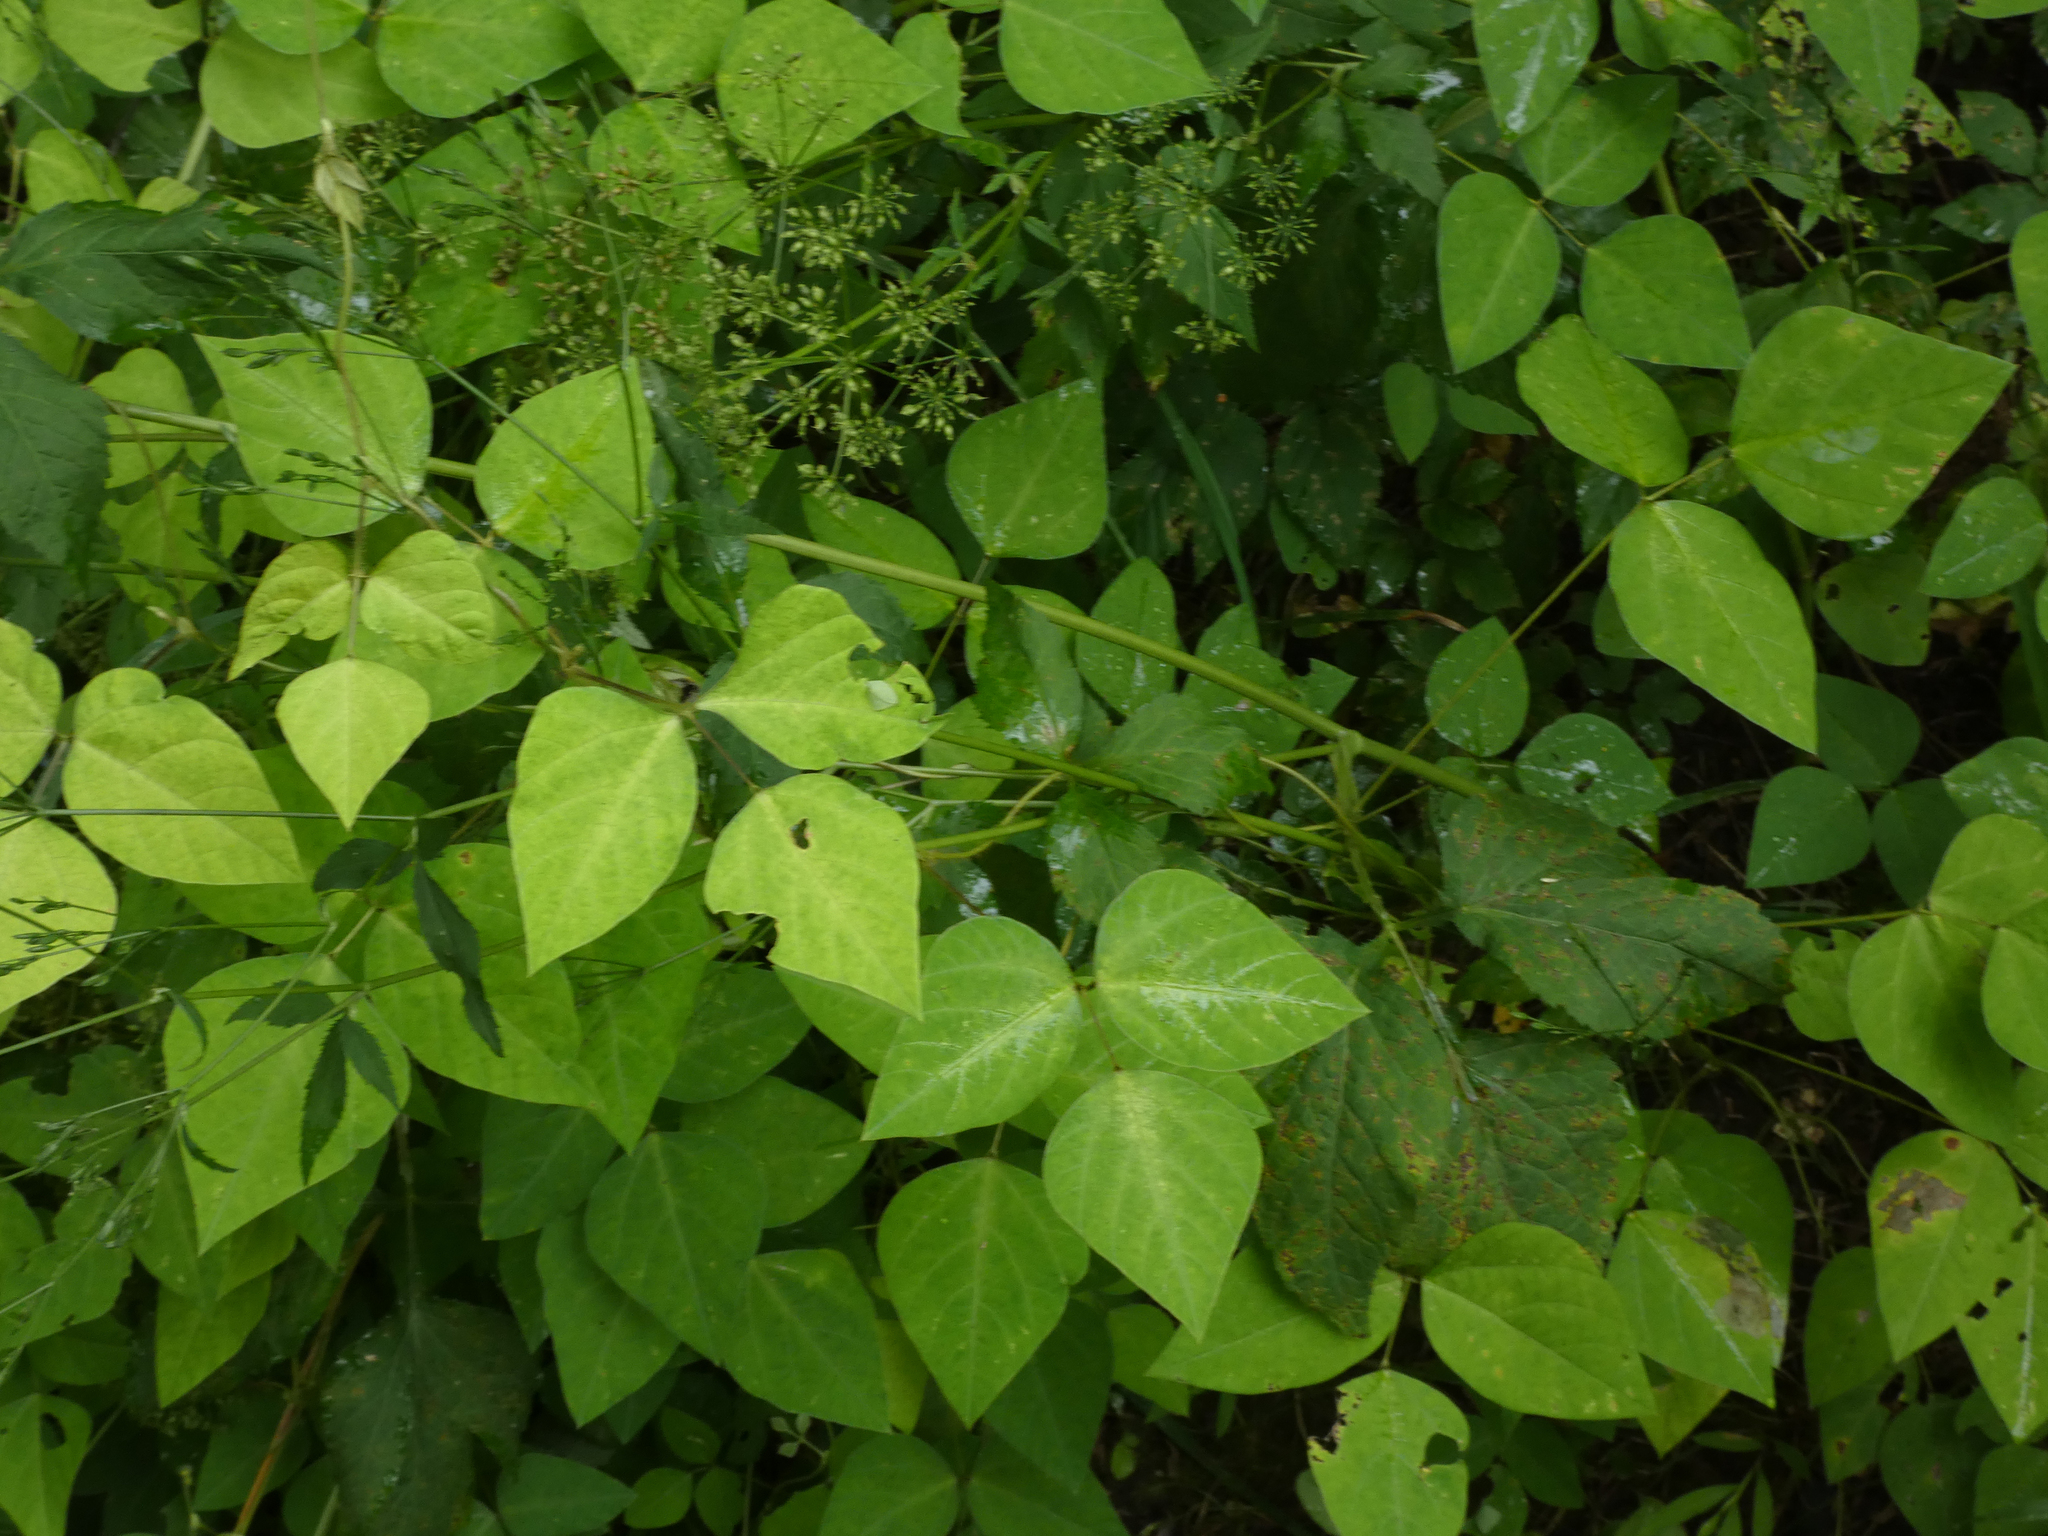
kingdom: Plantae
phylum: Tracheophyta
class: Magnoliopsida
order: Fabales
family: Fabaceae
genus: Amphicarpaea
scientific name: Amphicarpaea bracteata
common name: American hog peanut
